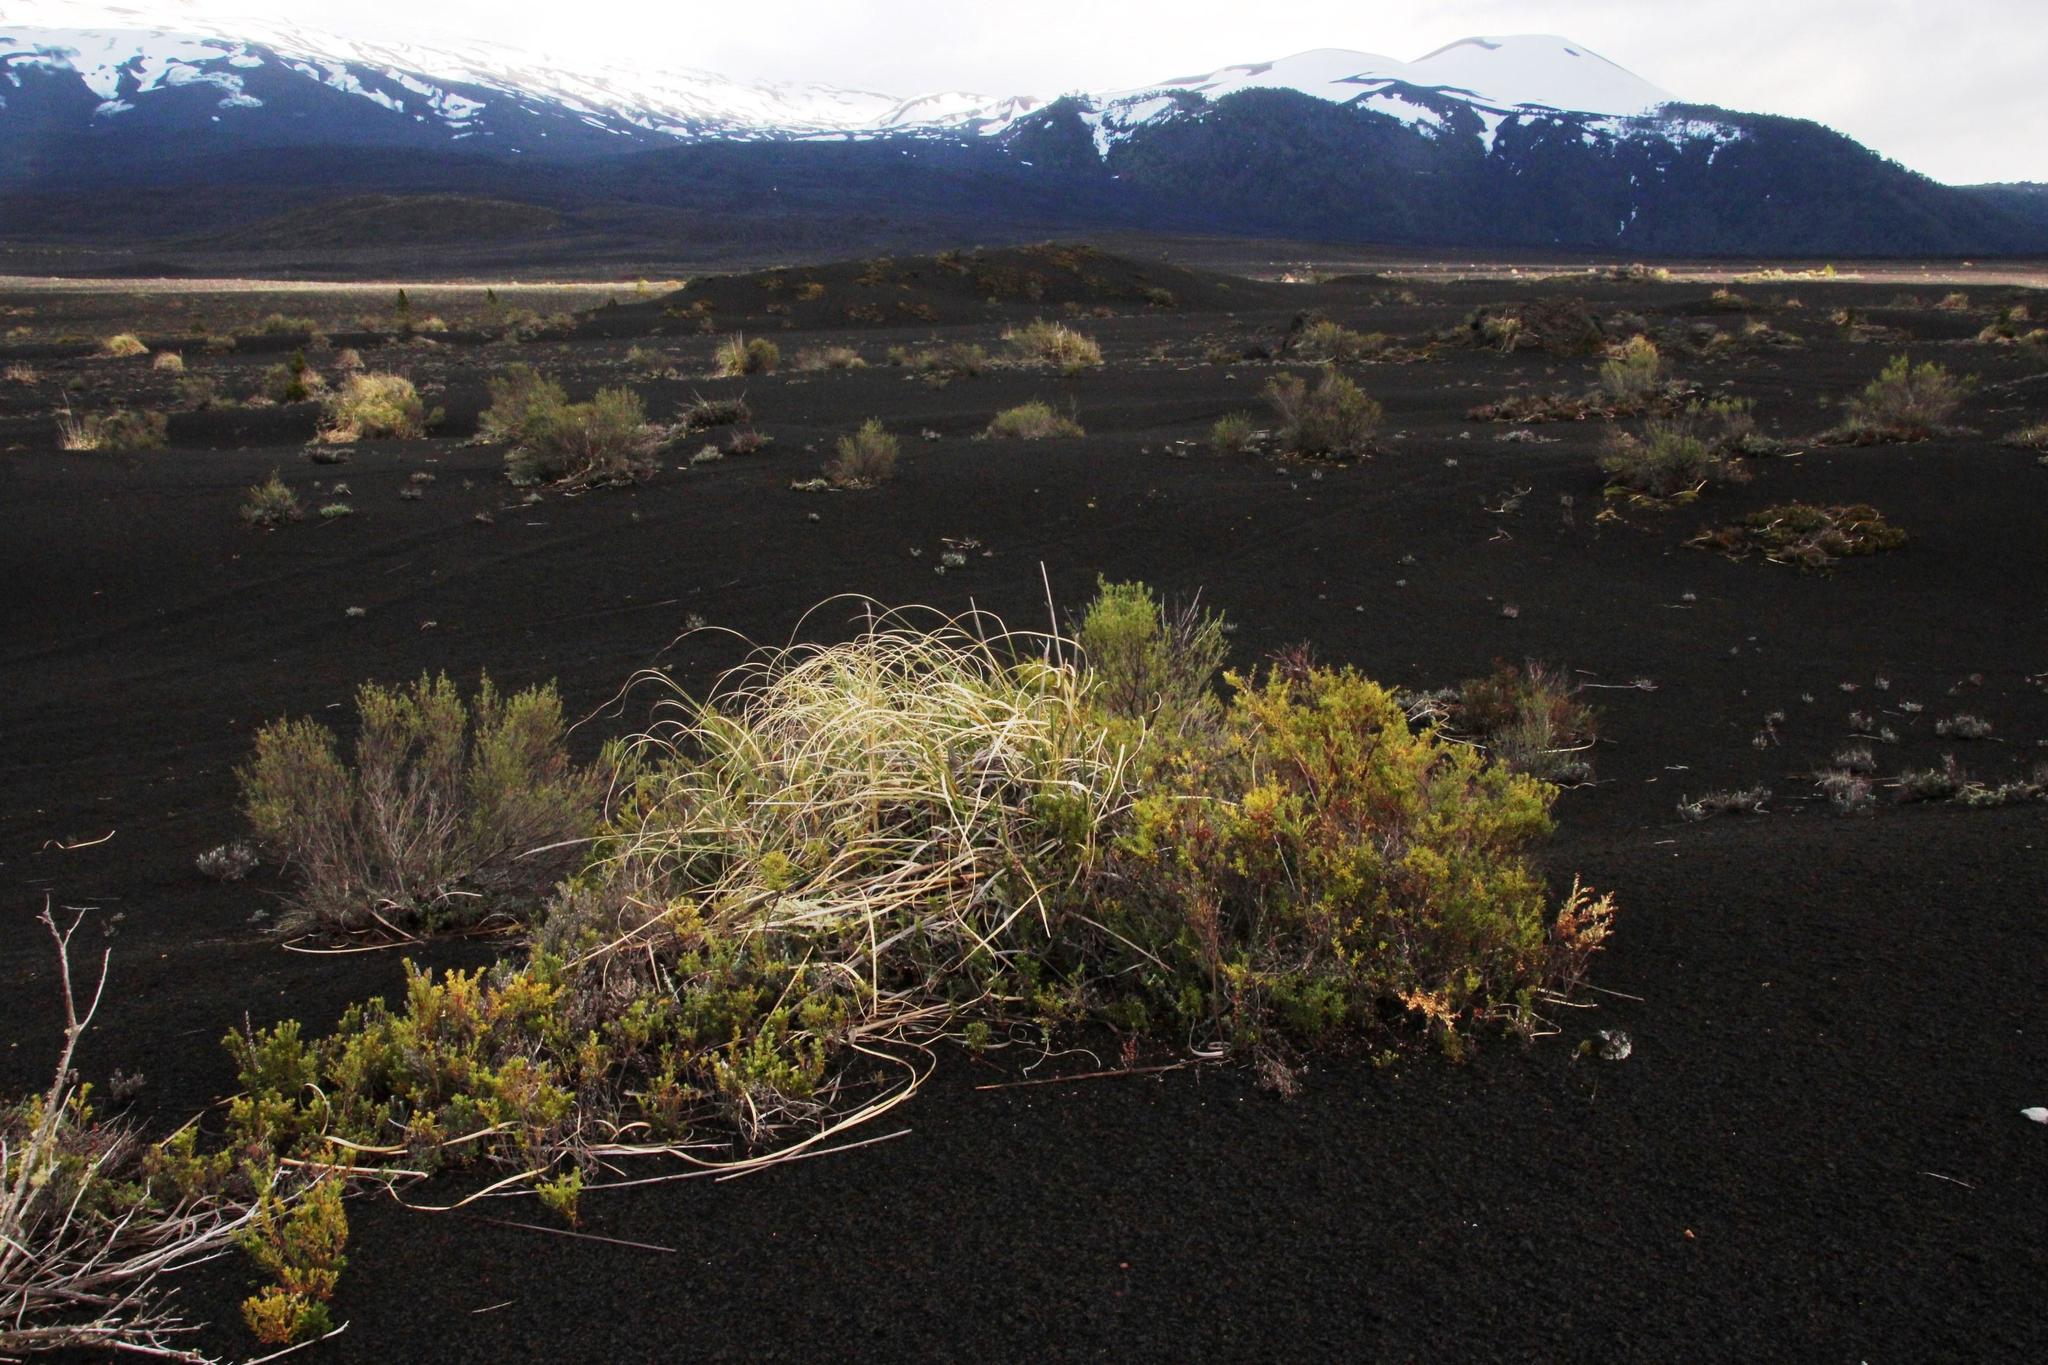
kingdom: Plantae
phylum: Tracheophyta
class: Magnoliopsida
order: Ericales
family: Ericaceae
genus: Gaultheria
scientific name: Gaultheria poeppigii
